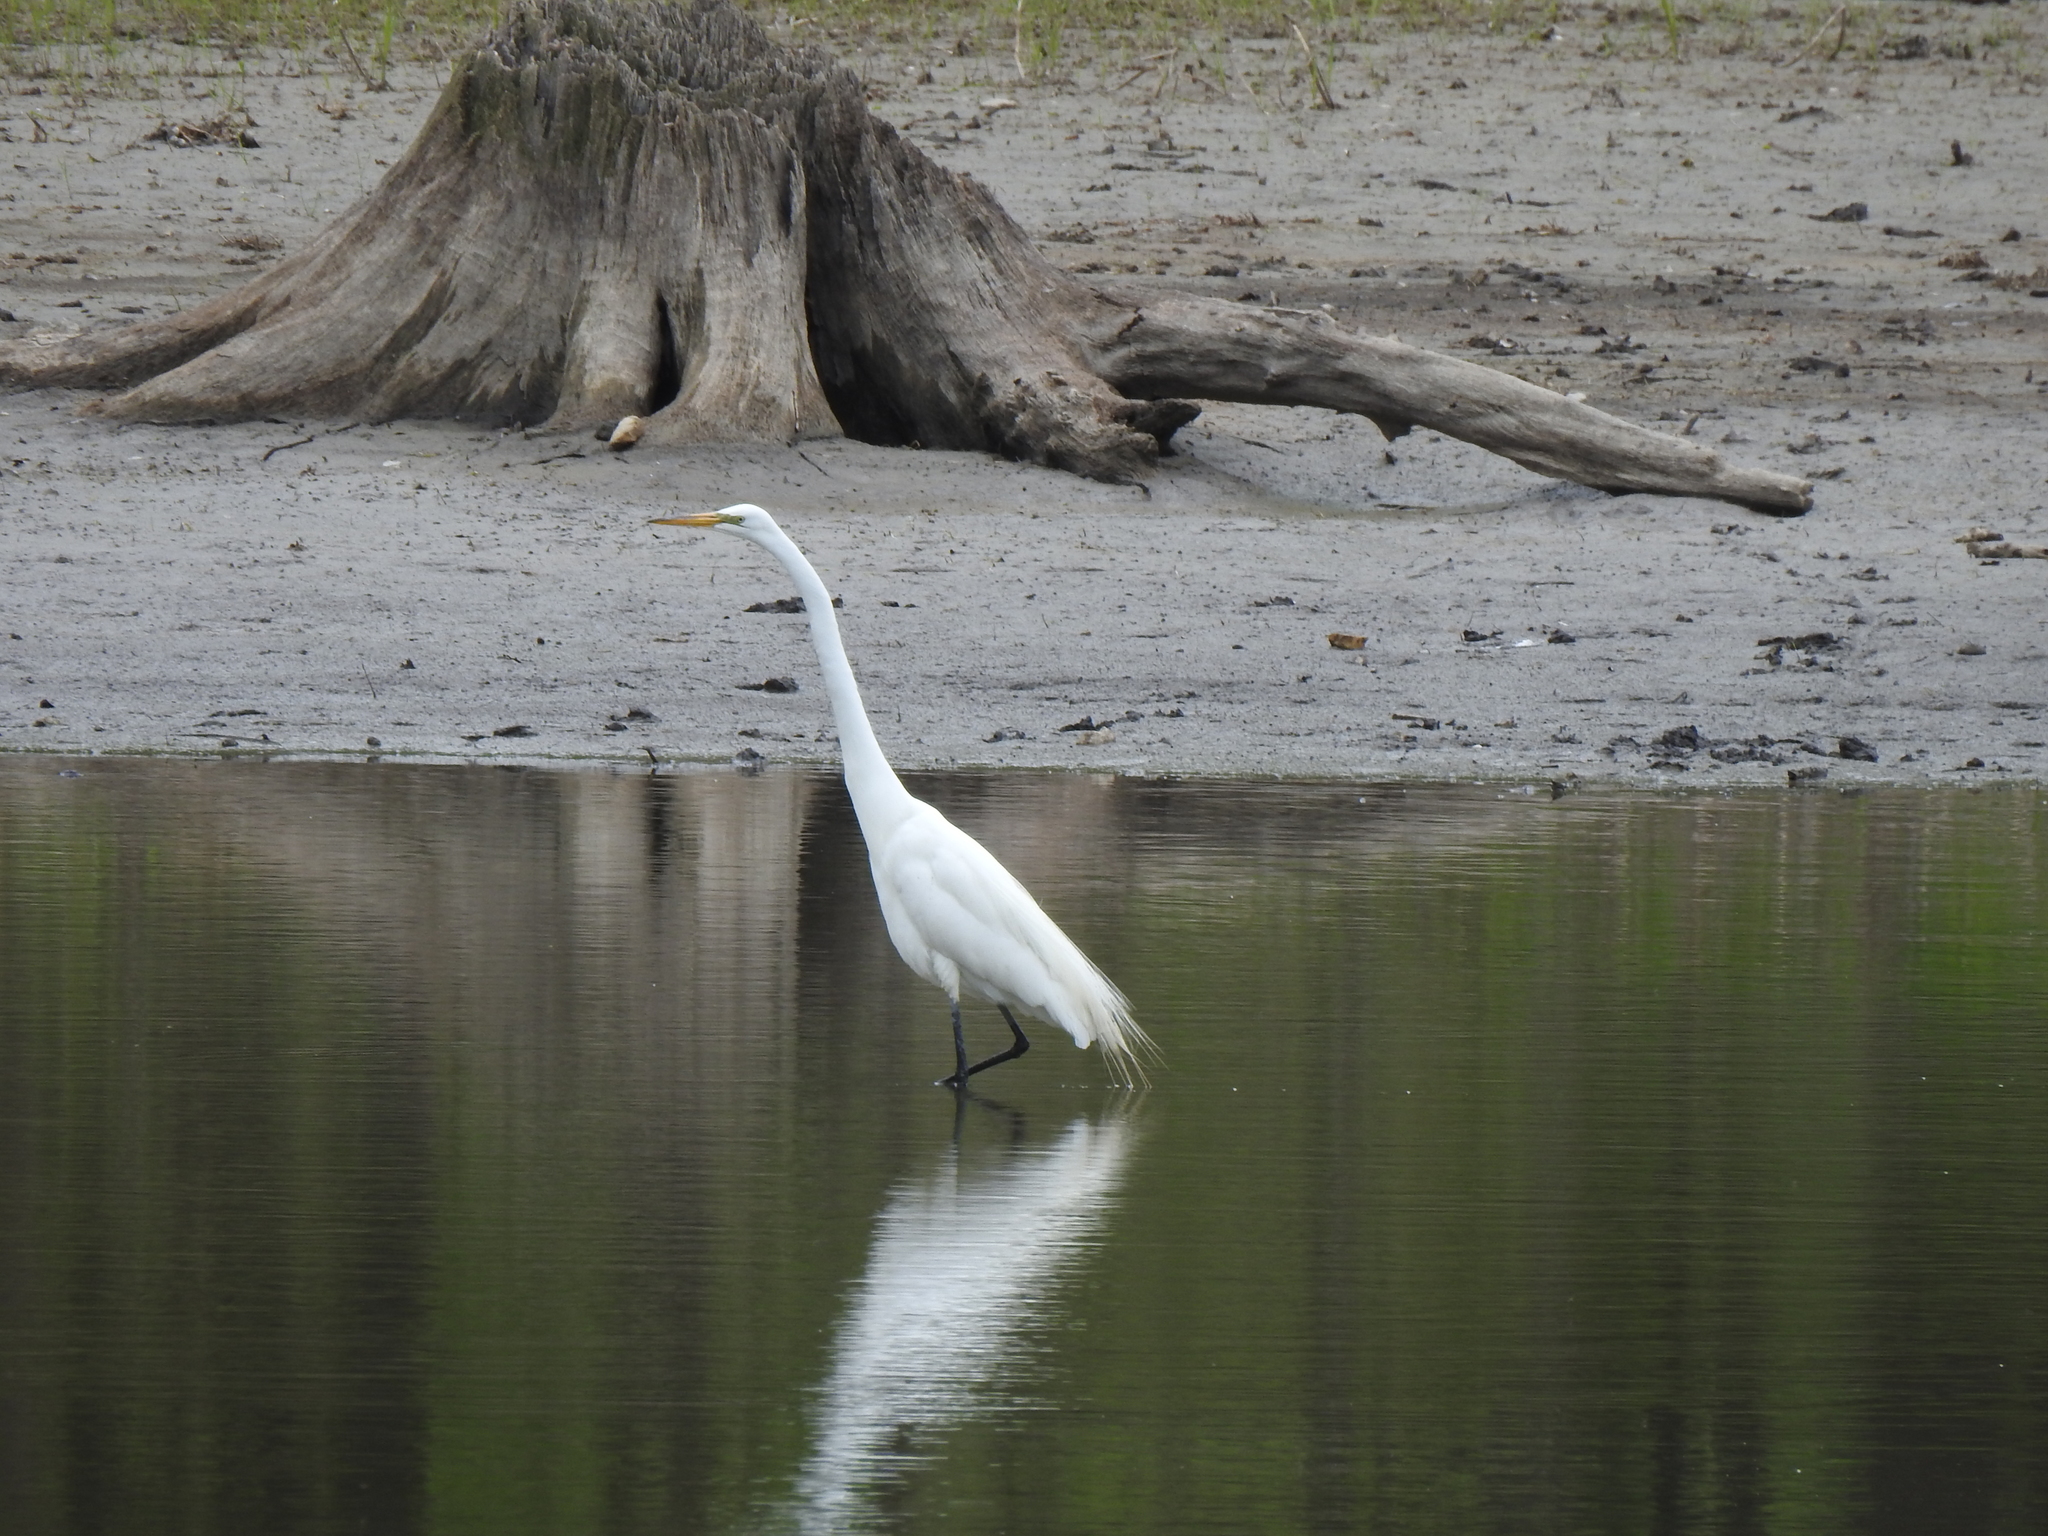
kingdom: Animalia
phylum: Chordata
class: Aves
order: Pelecaniformes
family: Ardeidae
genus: Ardea
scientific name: Ardea alba
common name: Great egret
